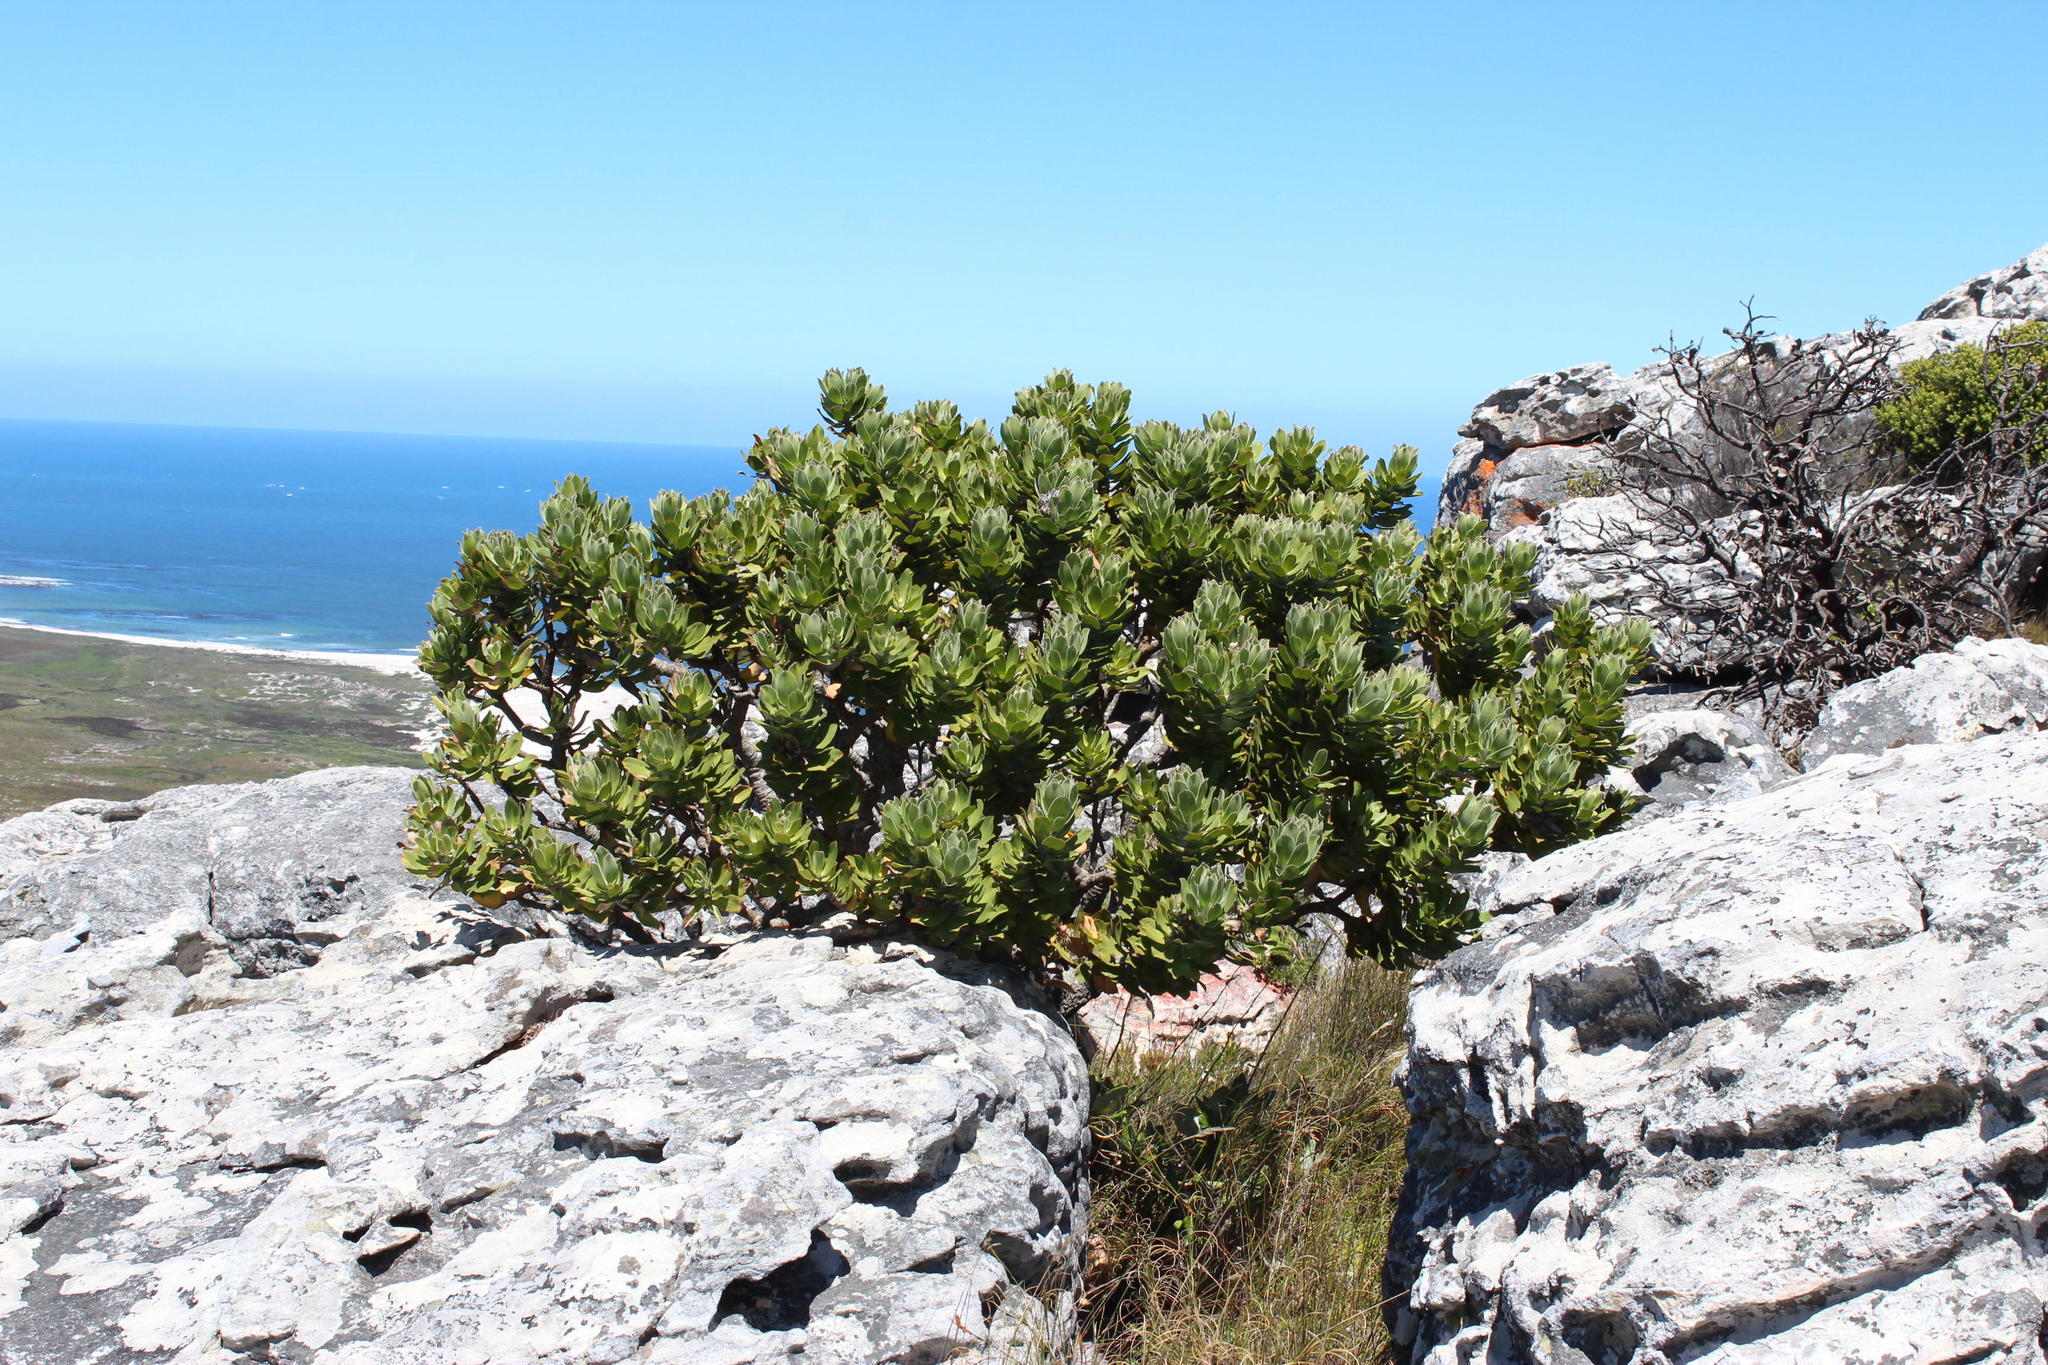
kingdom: Plantae
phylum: Tracheophyta
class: Magnoliopsida
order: Proteales
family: Proteaceae
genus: Leucospermum
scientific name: Leucospermum conocarpodendron
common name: Tree pincushion
